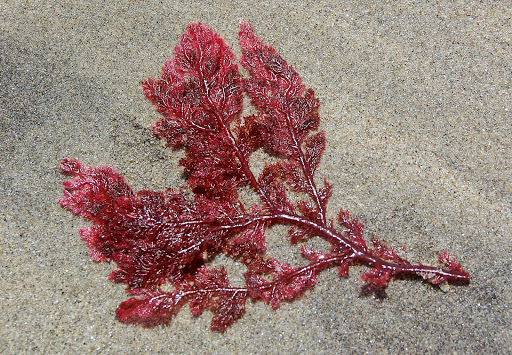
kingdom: Plantae
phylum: Rhodophyta
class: Florideophyceae
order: Plocamiales
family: Plocamiaceae
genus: Plocamium
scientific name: Plocamium cartilagineum
